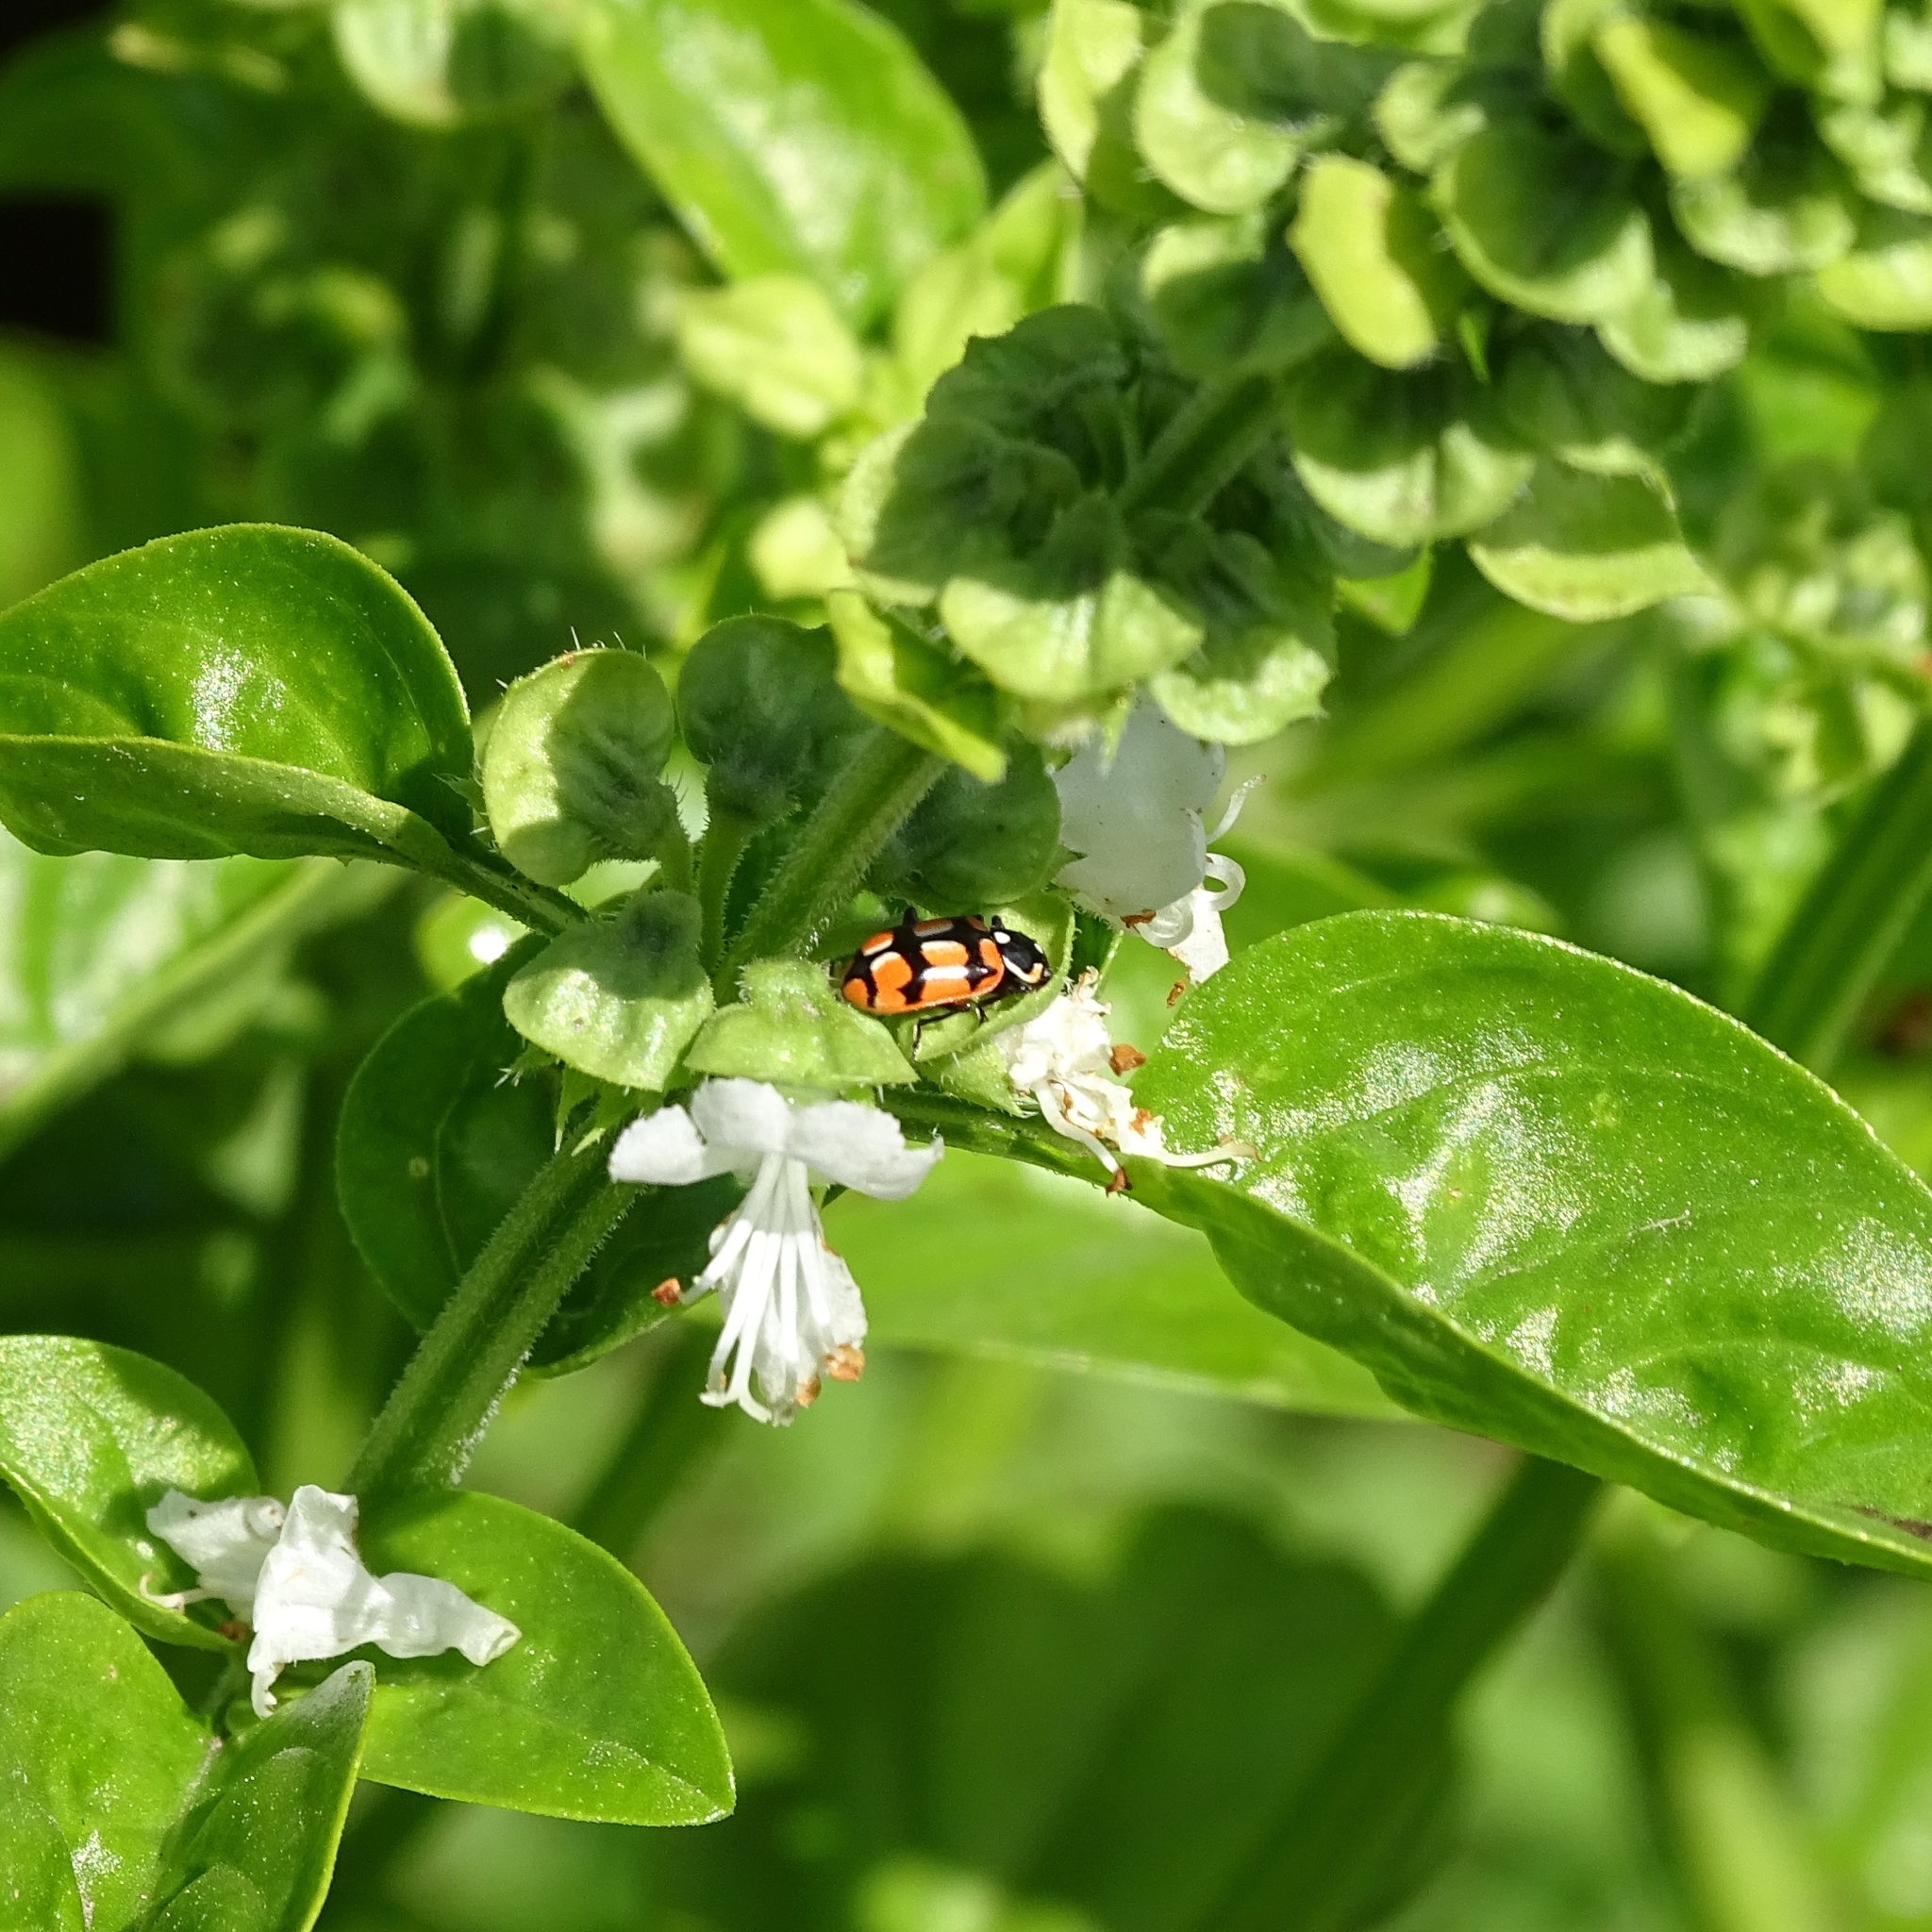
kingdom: Animalia
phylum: Arthropoda
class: Insecta
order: Coleoptera
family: Coccinellidae
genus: Eriopis
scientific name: Eriopis chilensis
